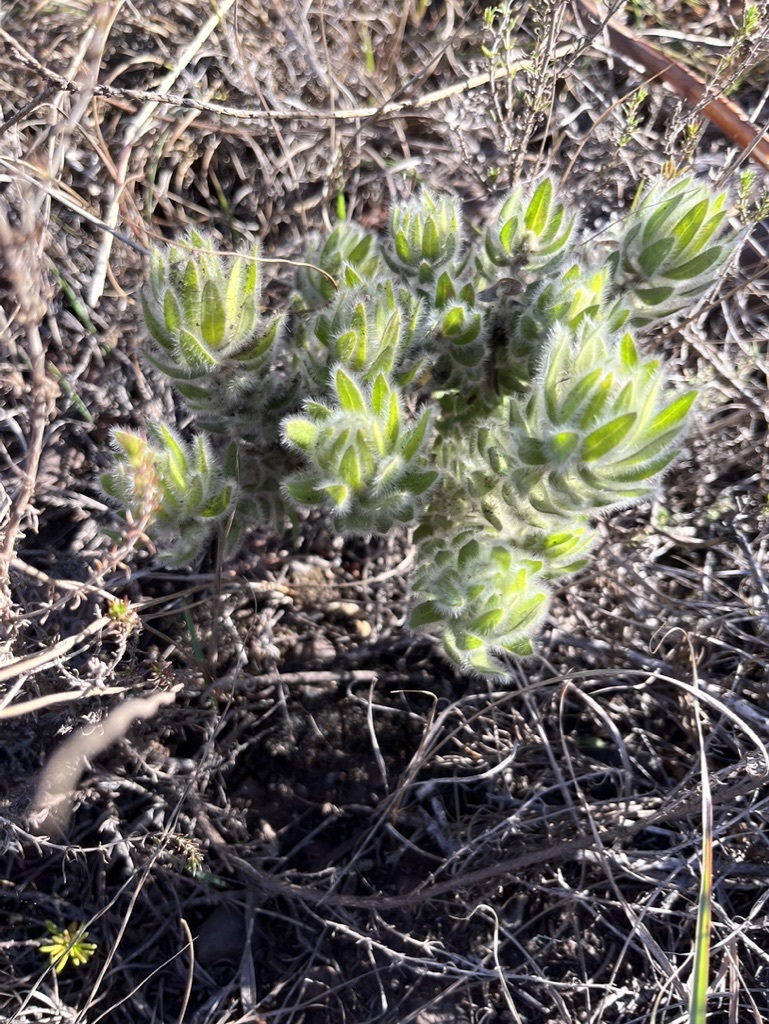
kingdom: Plantae
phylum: Tracheophyta
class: Magnoliopsida
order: Fabales
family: Fabaceae
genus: Xiphotheca
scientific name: Xiphotheca guthriei
